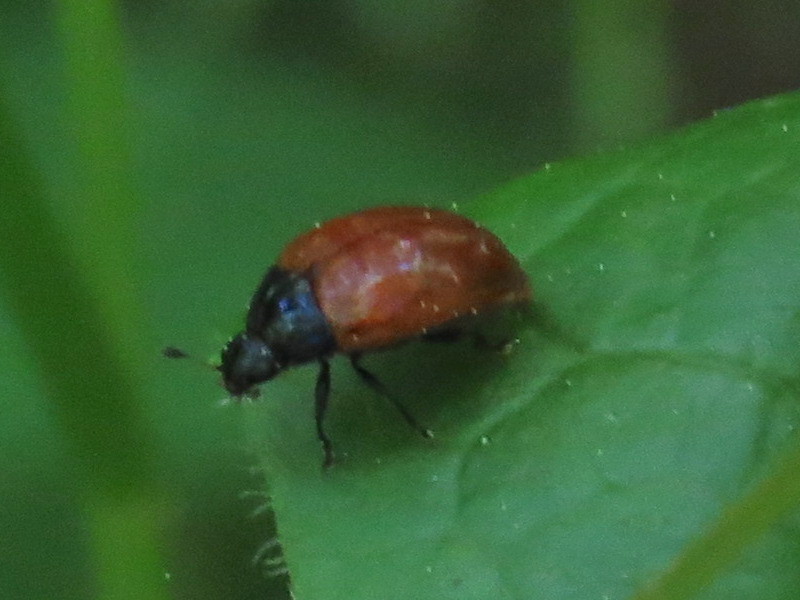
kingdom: Animalia
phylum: Arthropoda
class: Insecta
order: Coleoptera
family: Erotylidae
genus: Tritoma
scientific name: Tritoma sanguinipennis
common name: Red-winged tritoma
